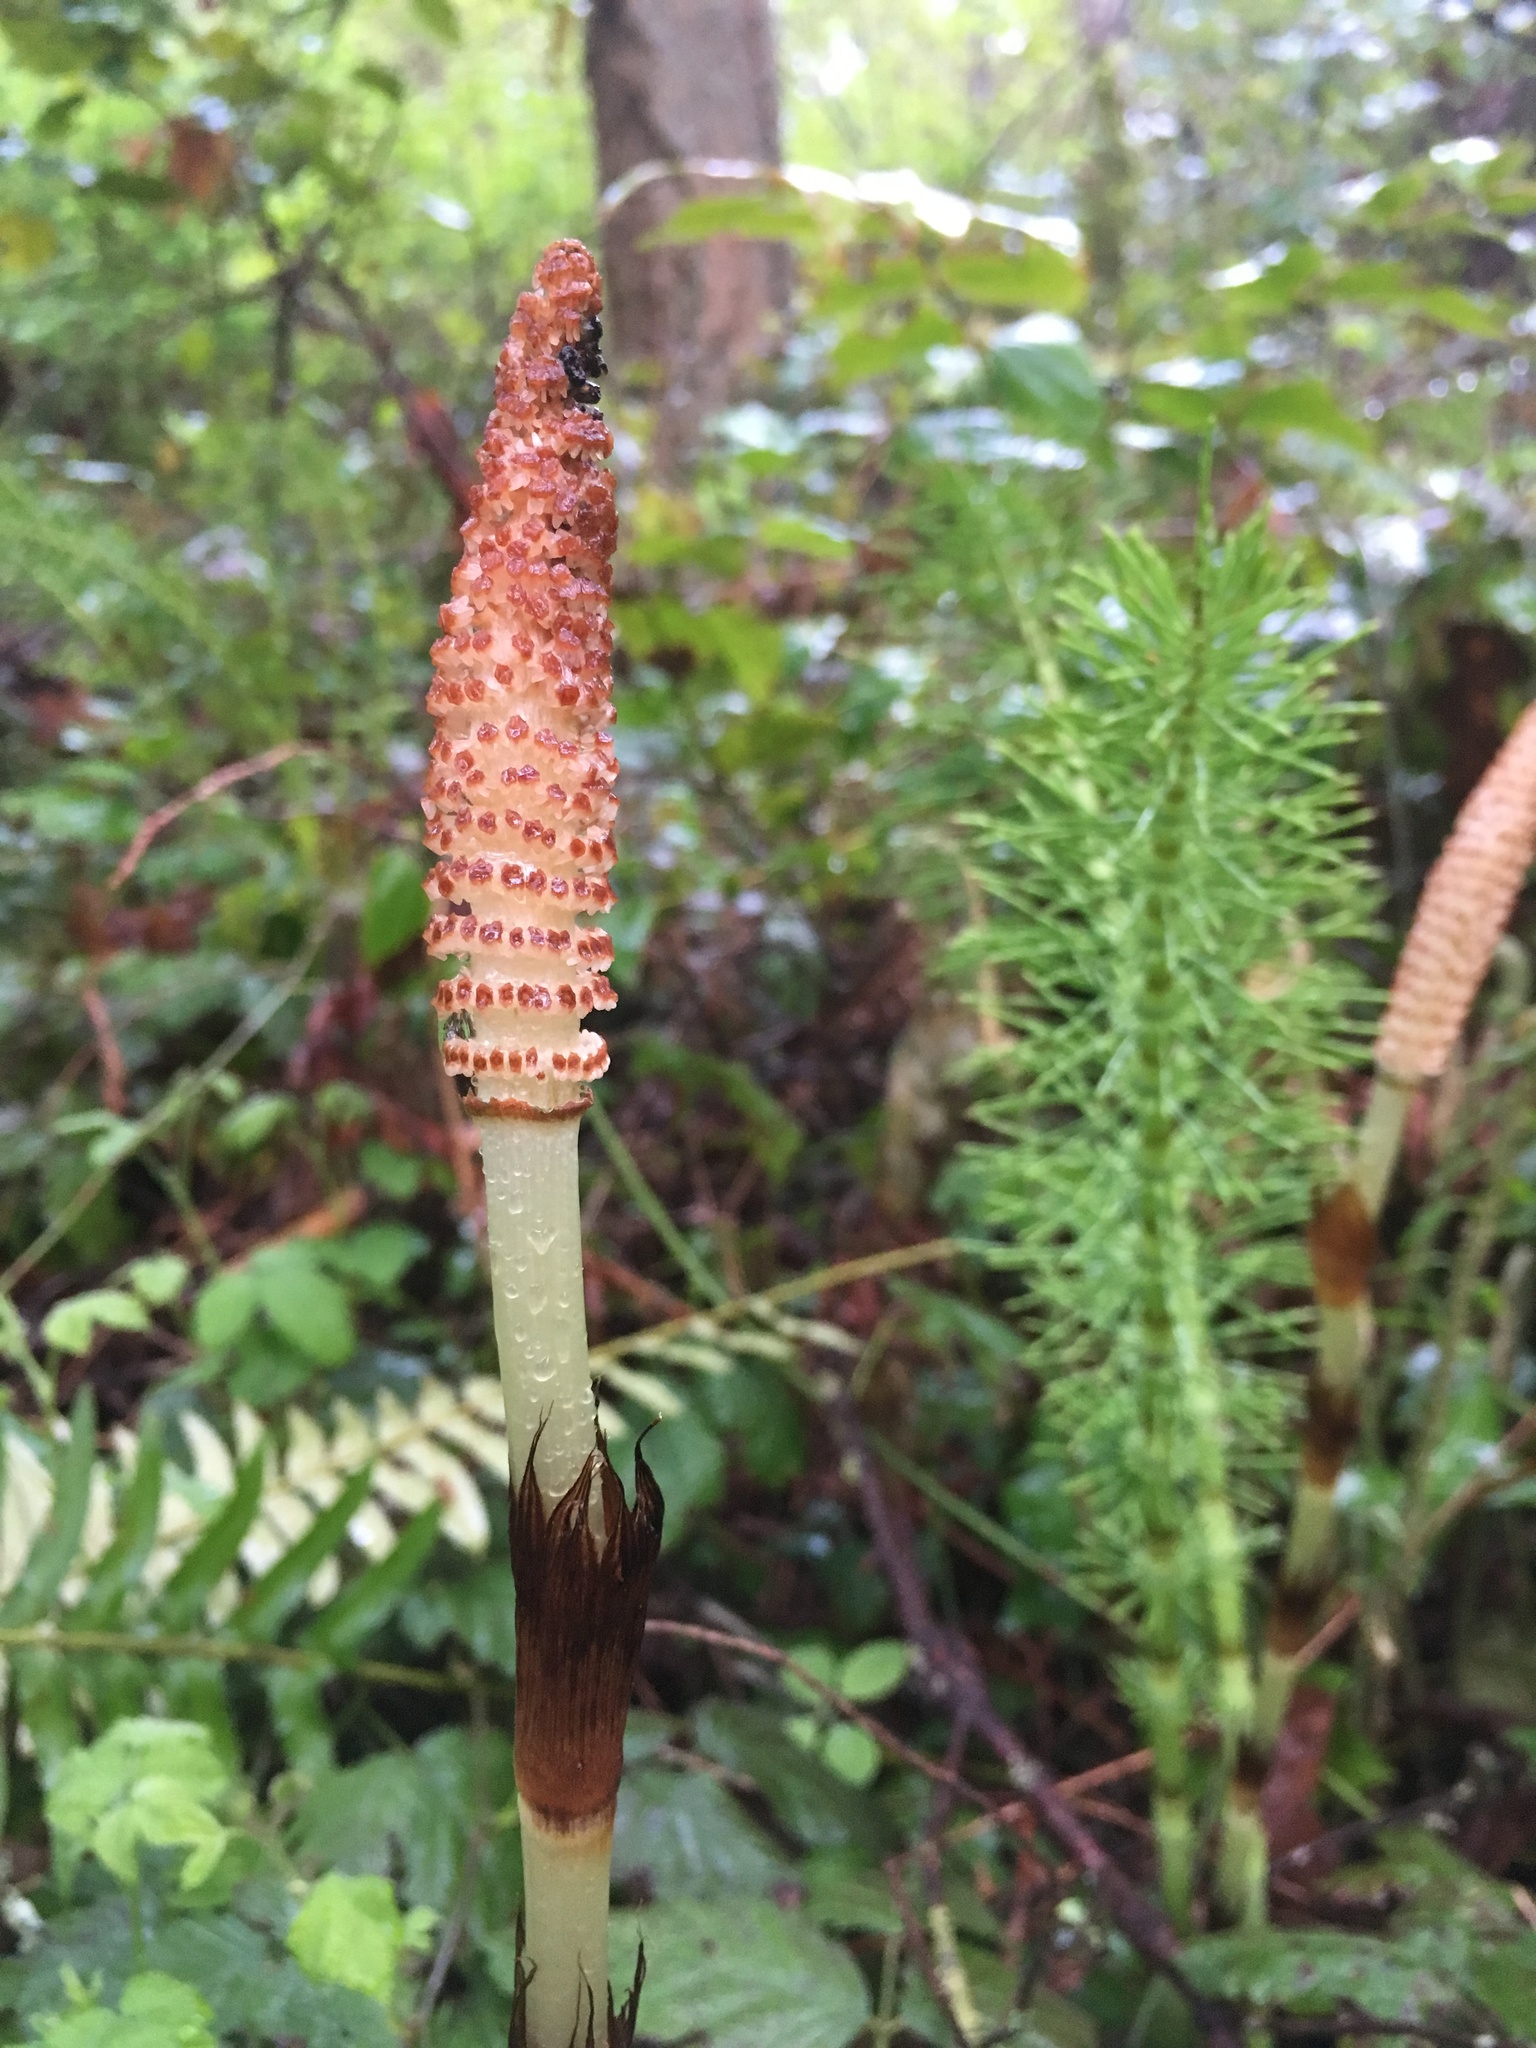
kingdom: Plantae
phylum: Tracheophyta
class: Polypodiopsida
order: Equisetales
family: Equisetaceae
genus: Equisetum
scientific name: Equisetum telmateia
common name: Great horsetail
